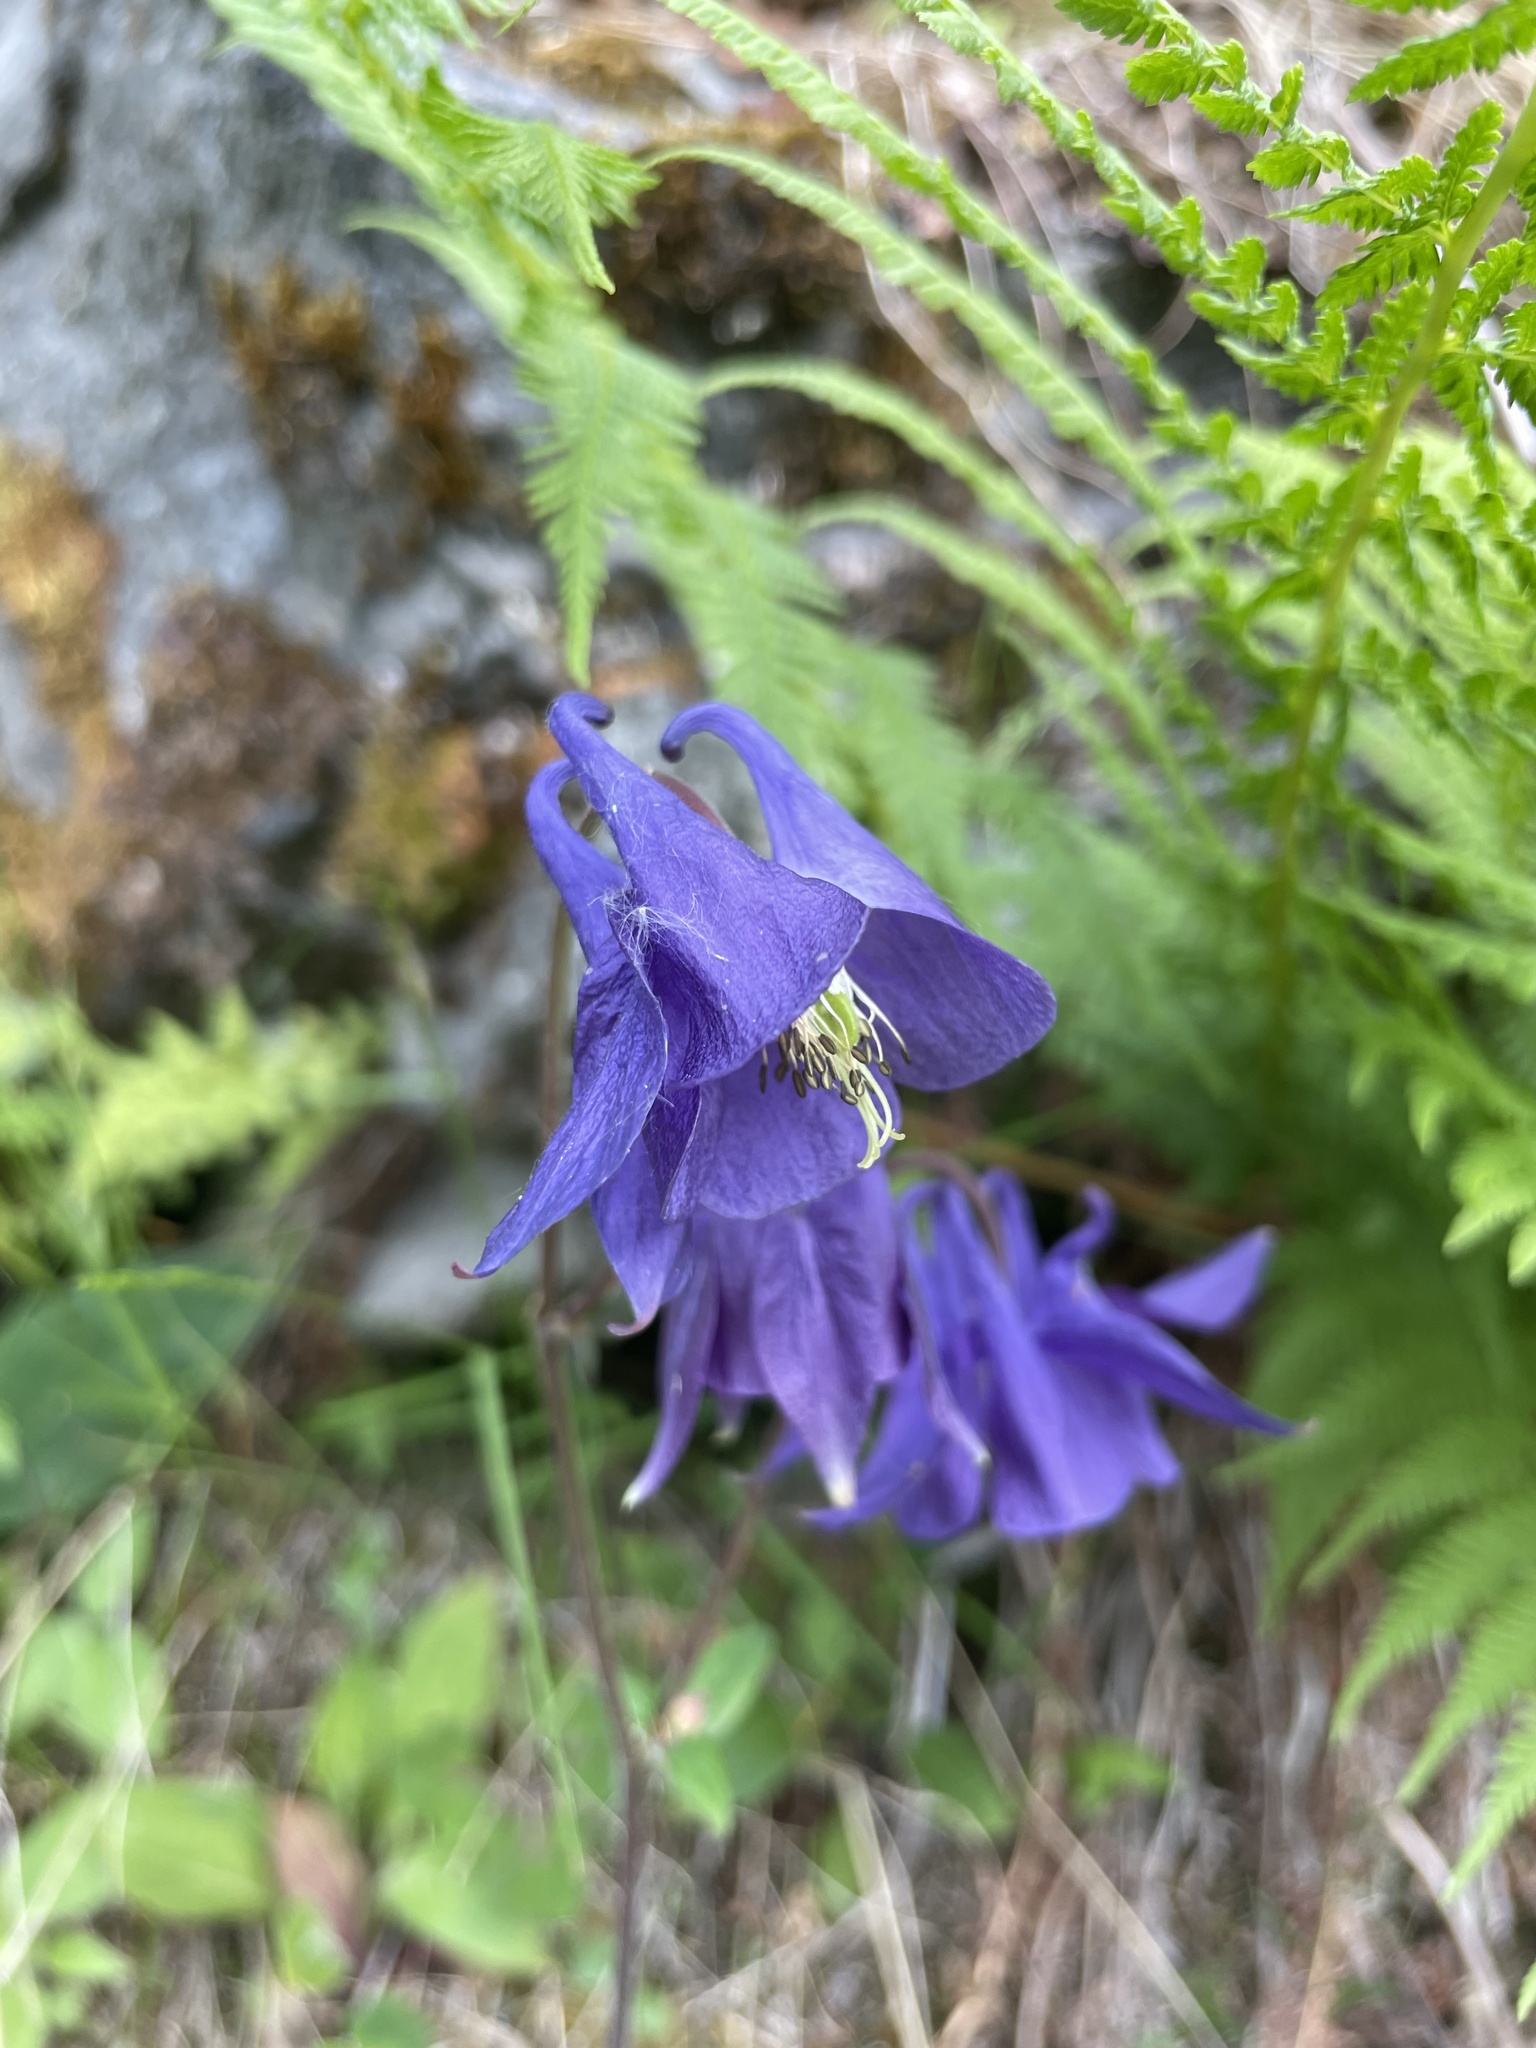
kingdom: Plantae
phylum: Tracheophyta
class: Magnoliopsida
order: Ranunculales
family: Ranunculaceae
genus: Aquilegia
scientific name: Aquilegia vulgaris
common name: Columbine
